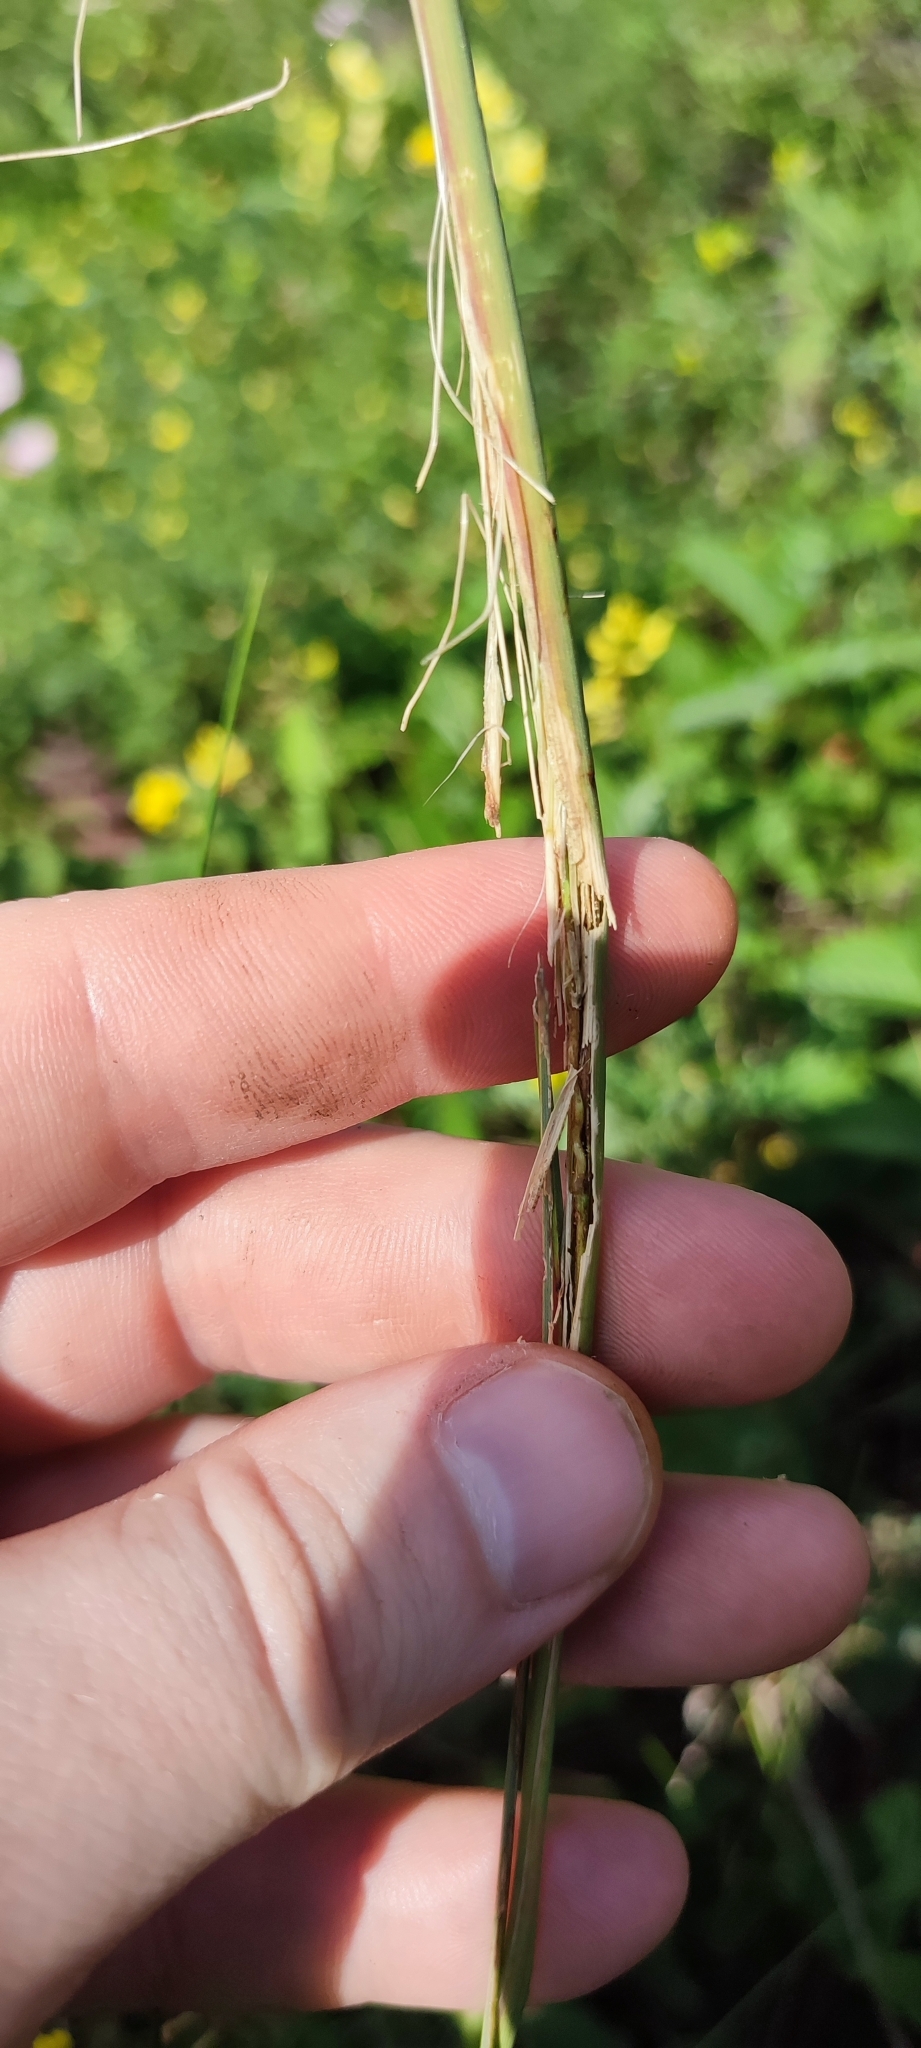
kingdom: Plantae
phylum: Tracheophyta
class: Liliopsida
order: Poales
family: Poaceae
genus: Stipa
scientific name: Stipa capillata
